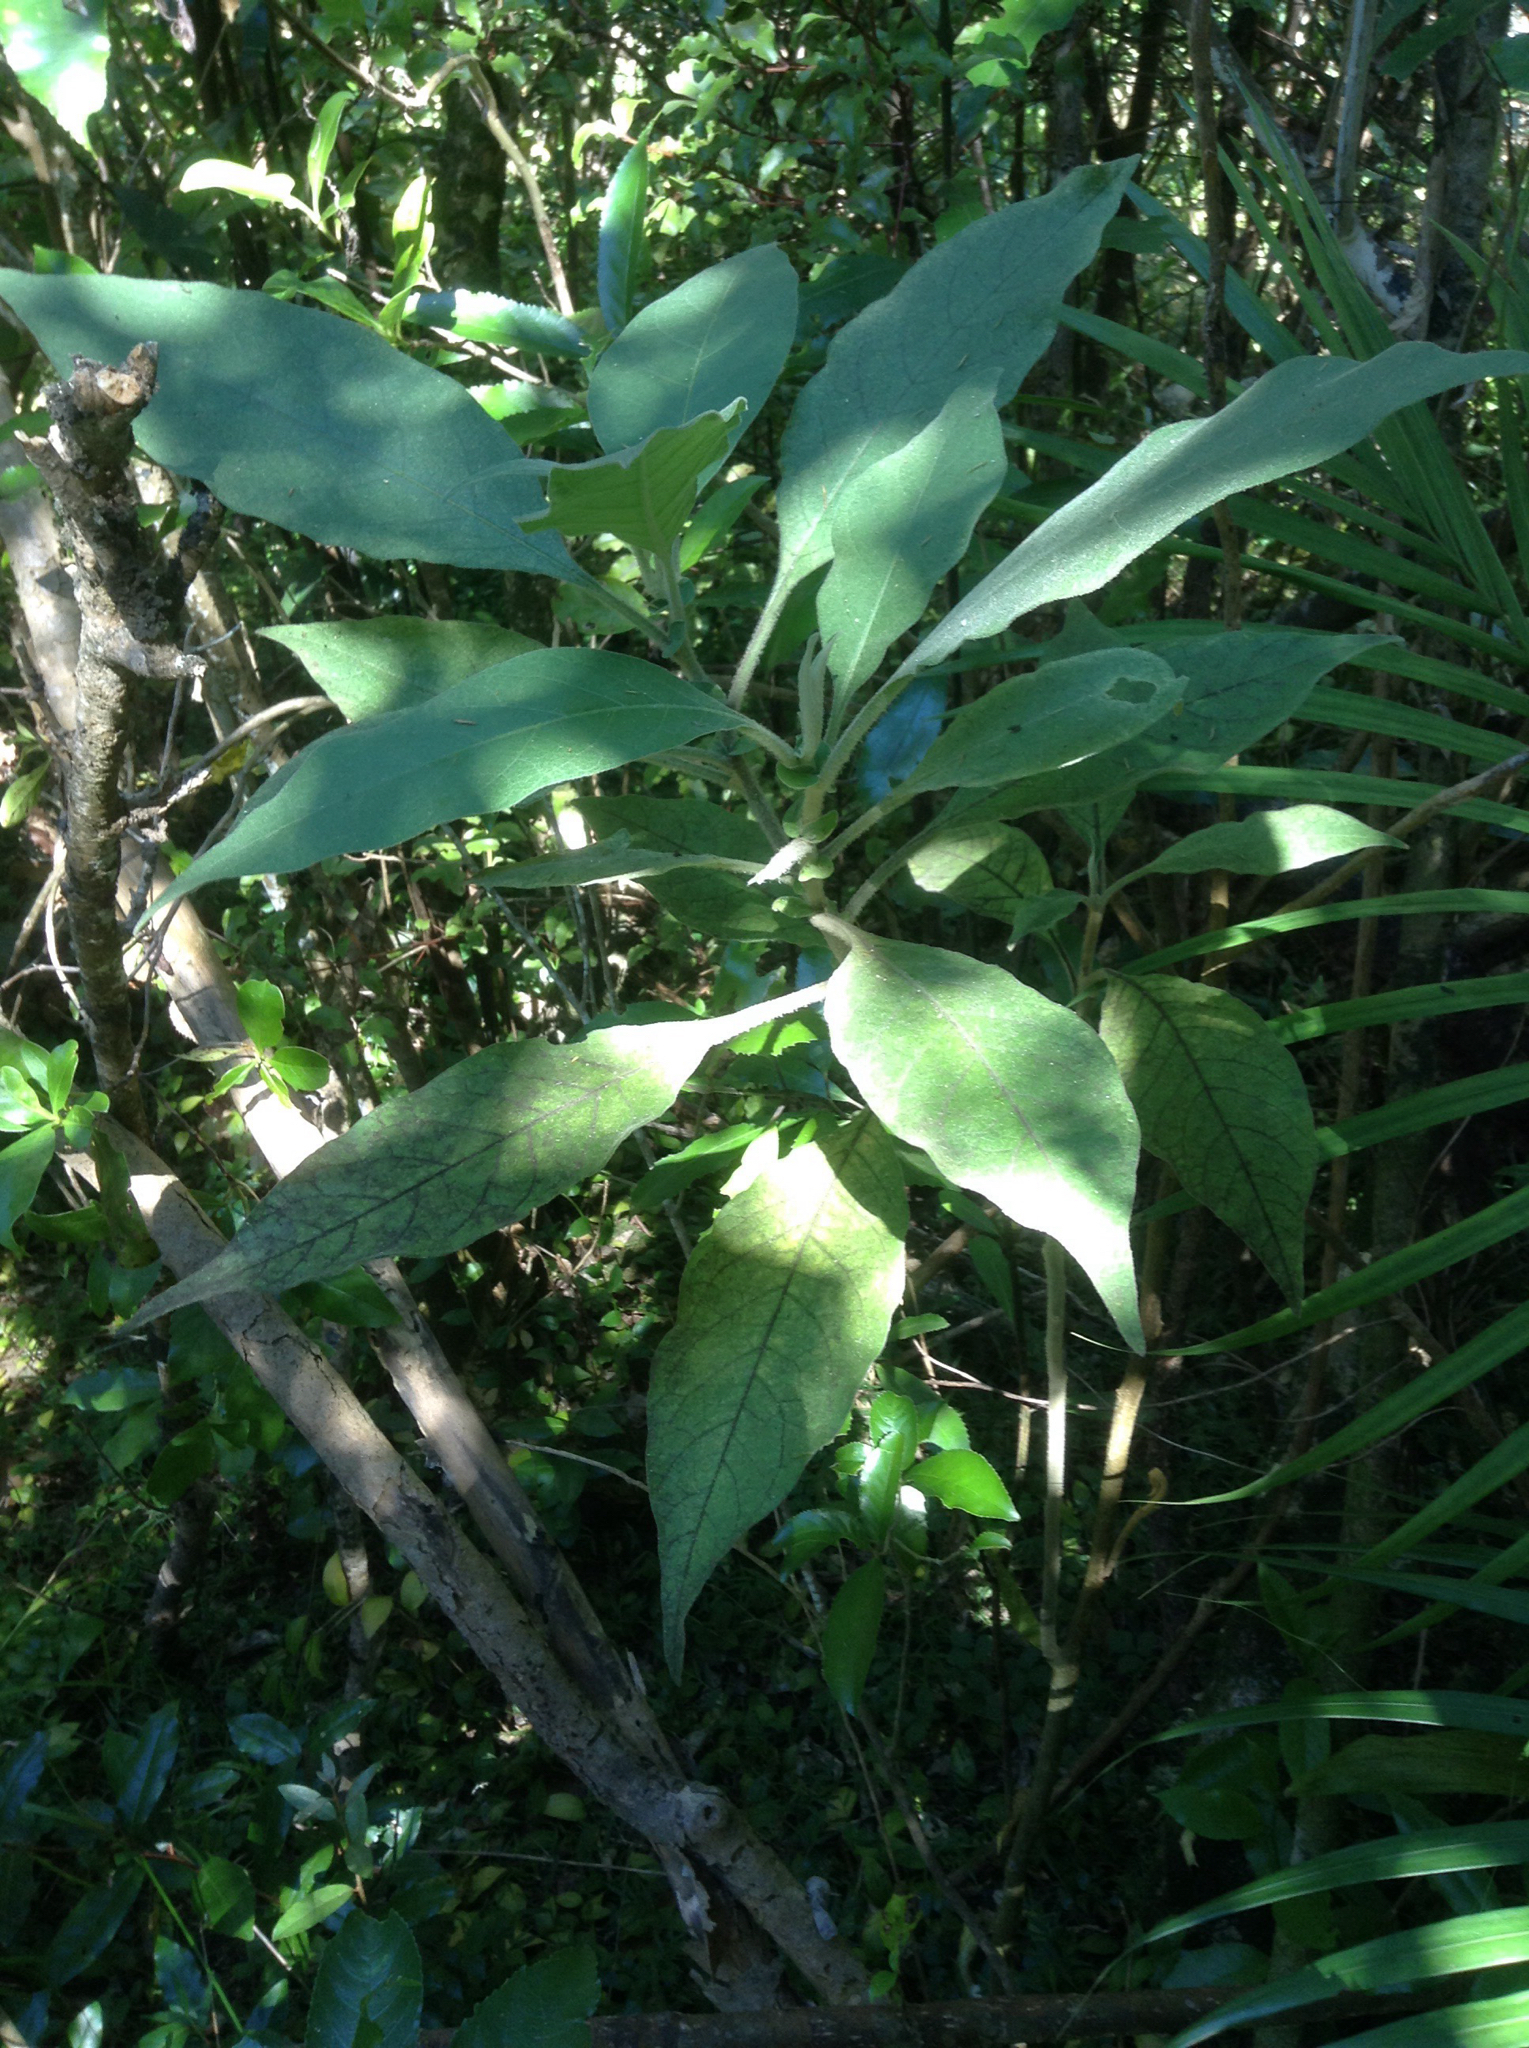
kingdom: Plantae
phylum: Tracheophyta
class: Magnoliopsida
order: Solanales
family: Solanaceae
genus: Solanum
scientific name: Solanum mauritianum
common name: Earleaf nightshade
